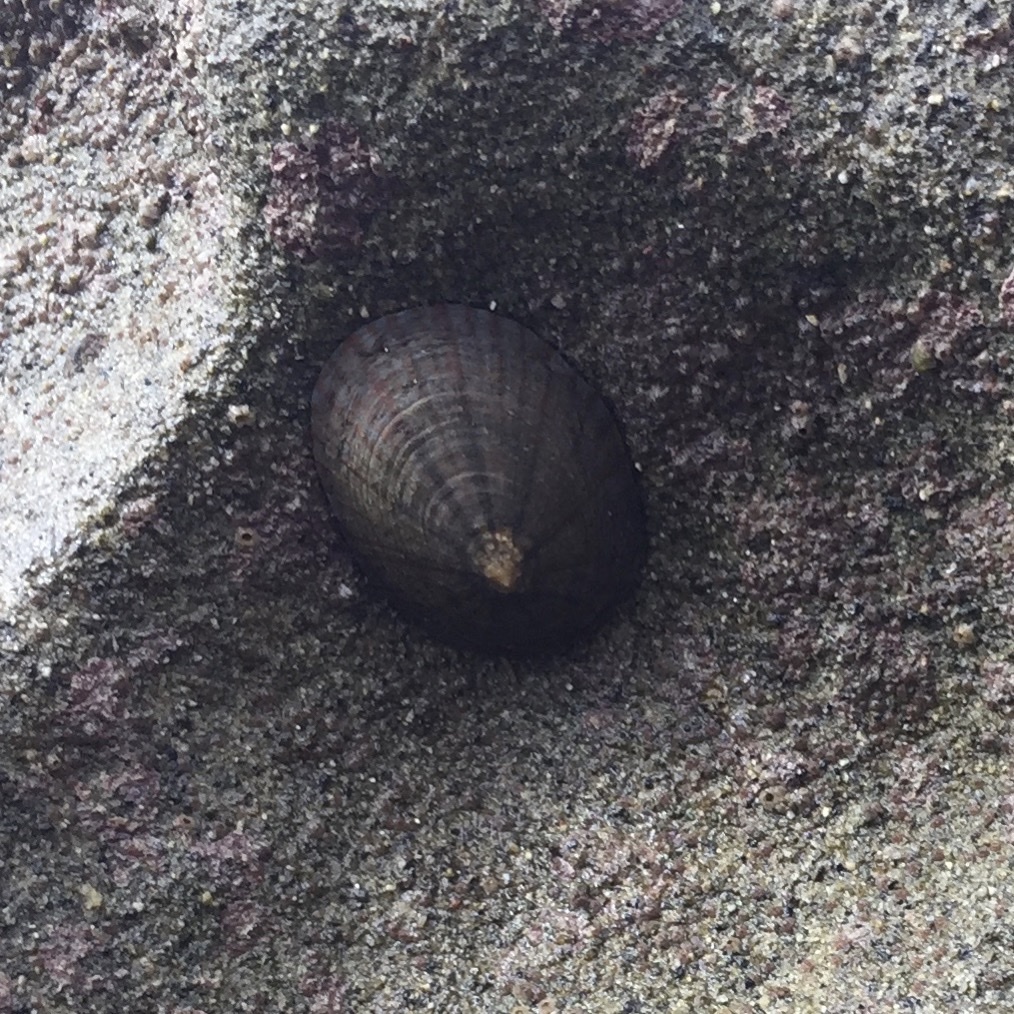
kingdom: Animalia
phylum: Mollusca
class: Gastropoda
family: Nacellidae
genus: Cellana
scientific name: Cellana nigrolineata
